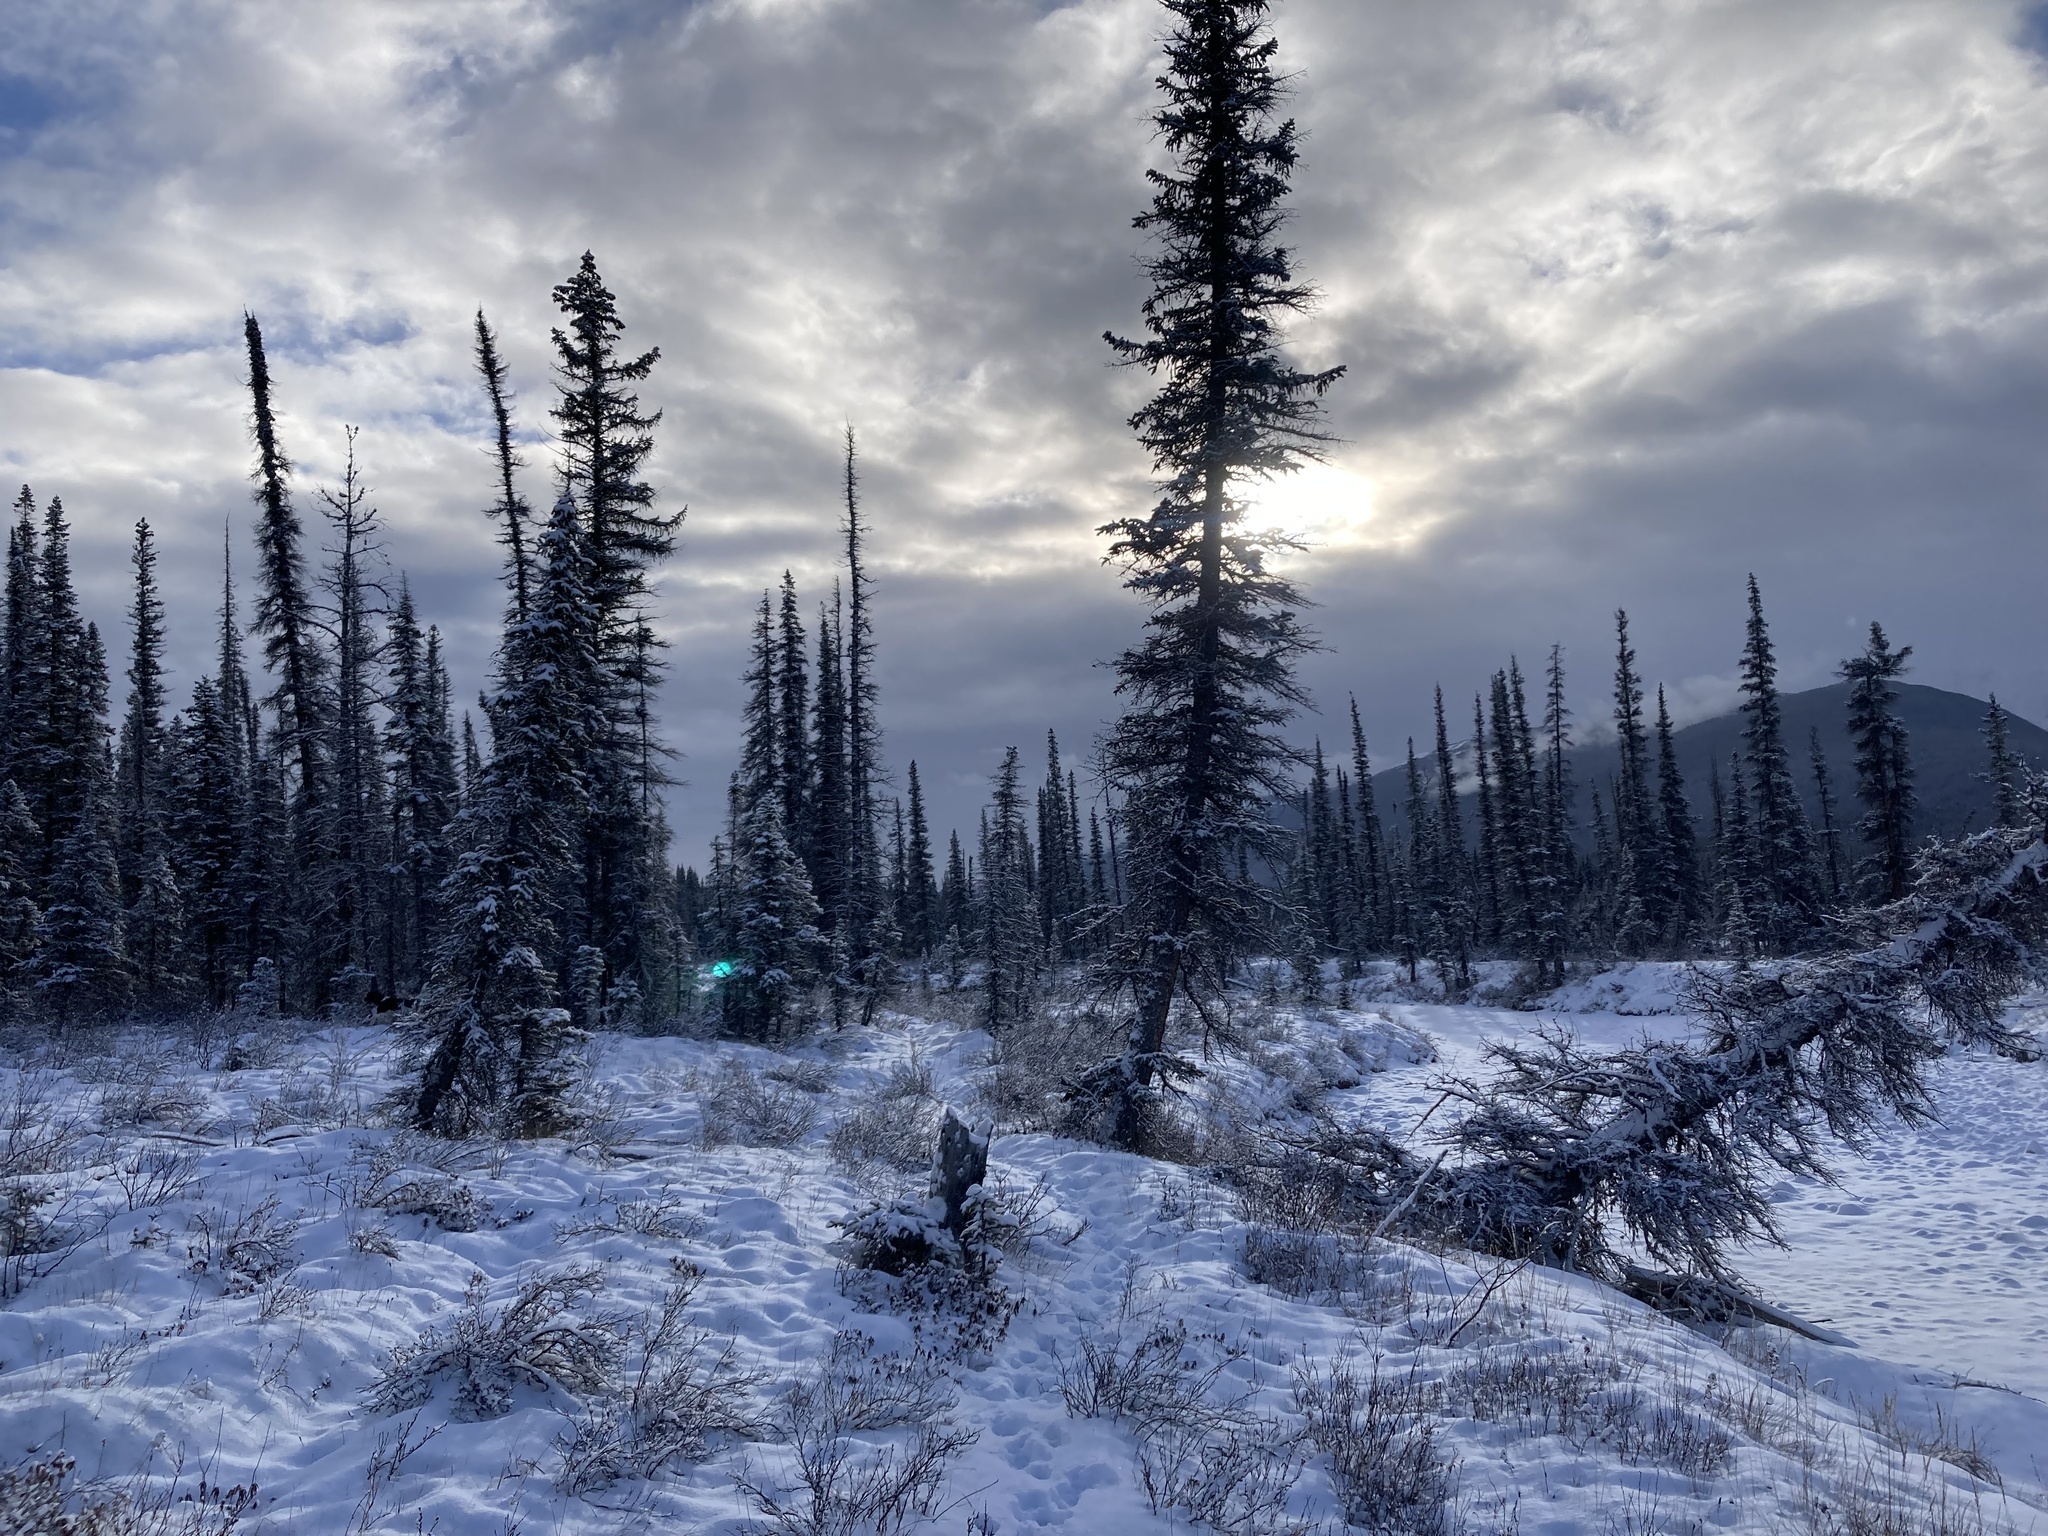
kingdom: Plantae
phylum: Tracheophyta
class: Pinopsida
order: Pinales
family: Pinaceae
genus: Picea
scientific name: Picea mariana
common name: Black spruce
